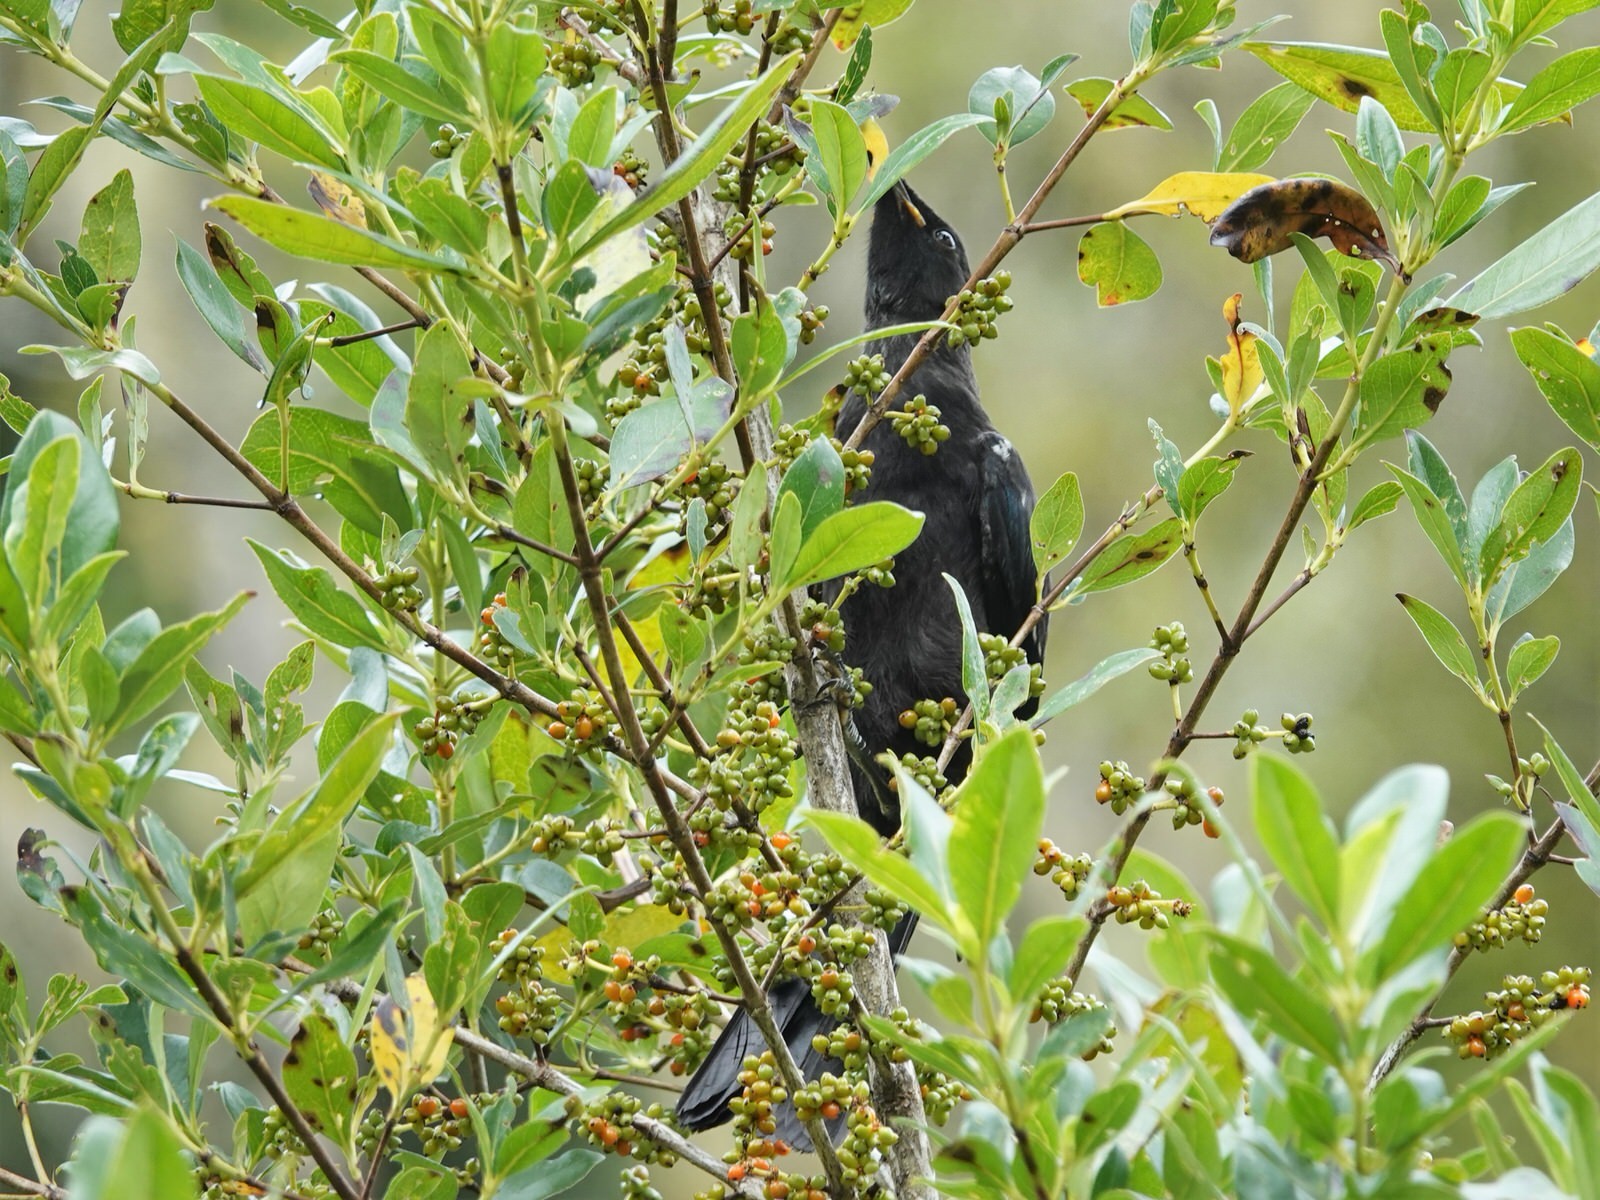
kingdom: Animalia
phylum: Chordata
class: Aves
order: Passeriformes
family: Meliphagidae
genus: Prosthemadera
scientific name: Prosthemadera novaeseelandiae
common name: Tui
